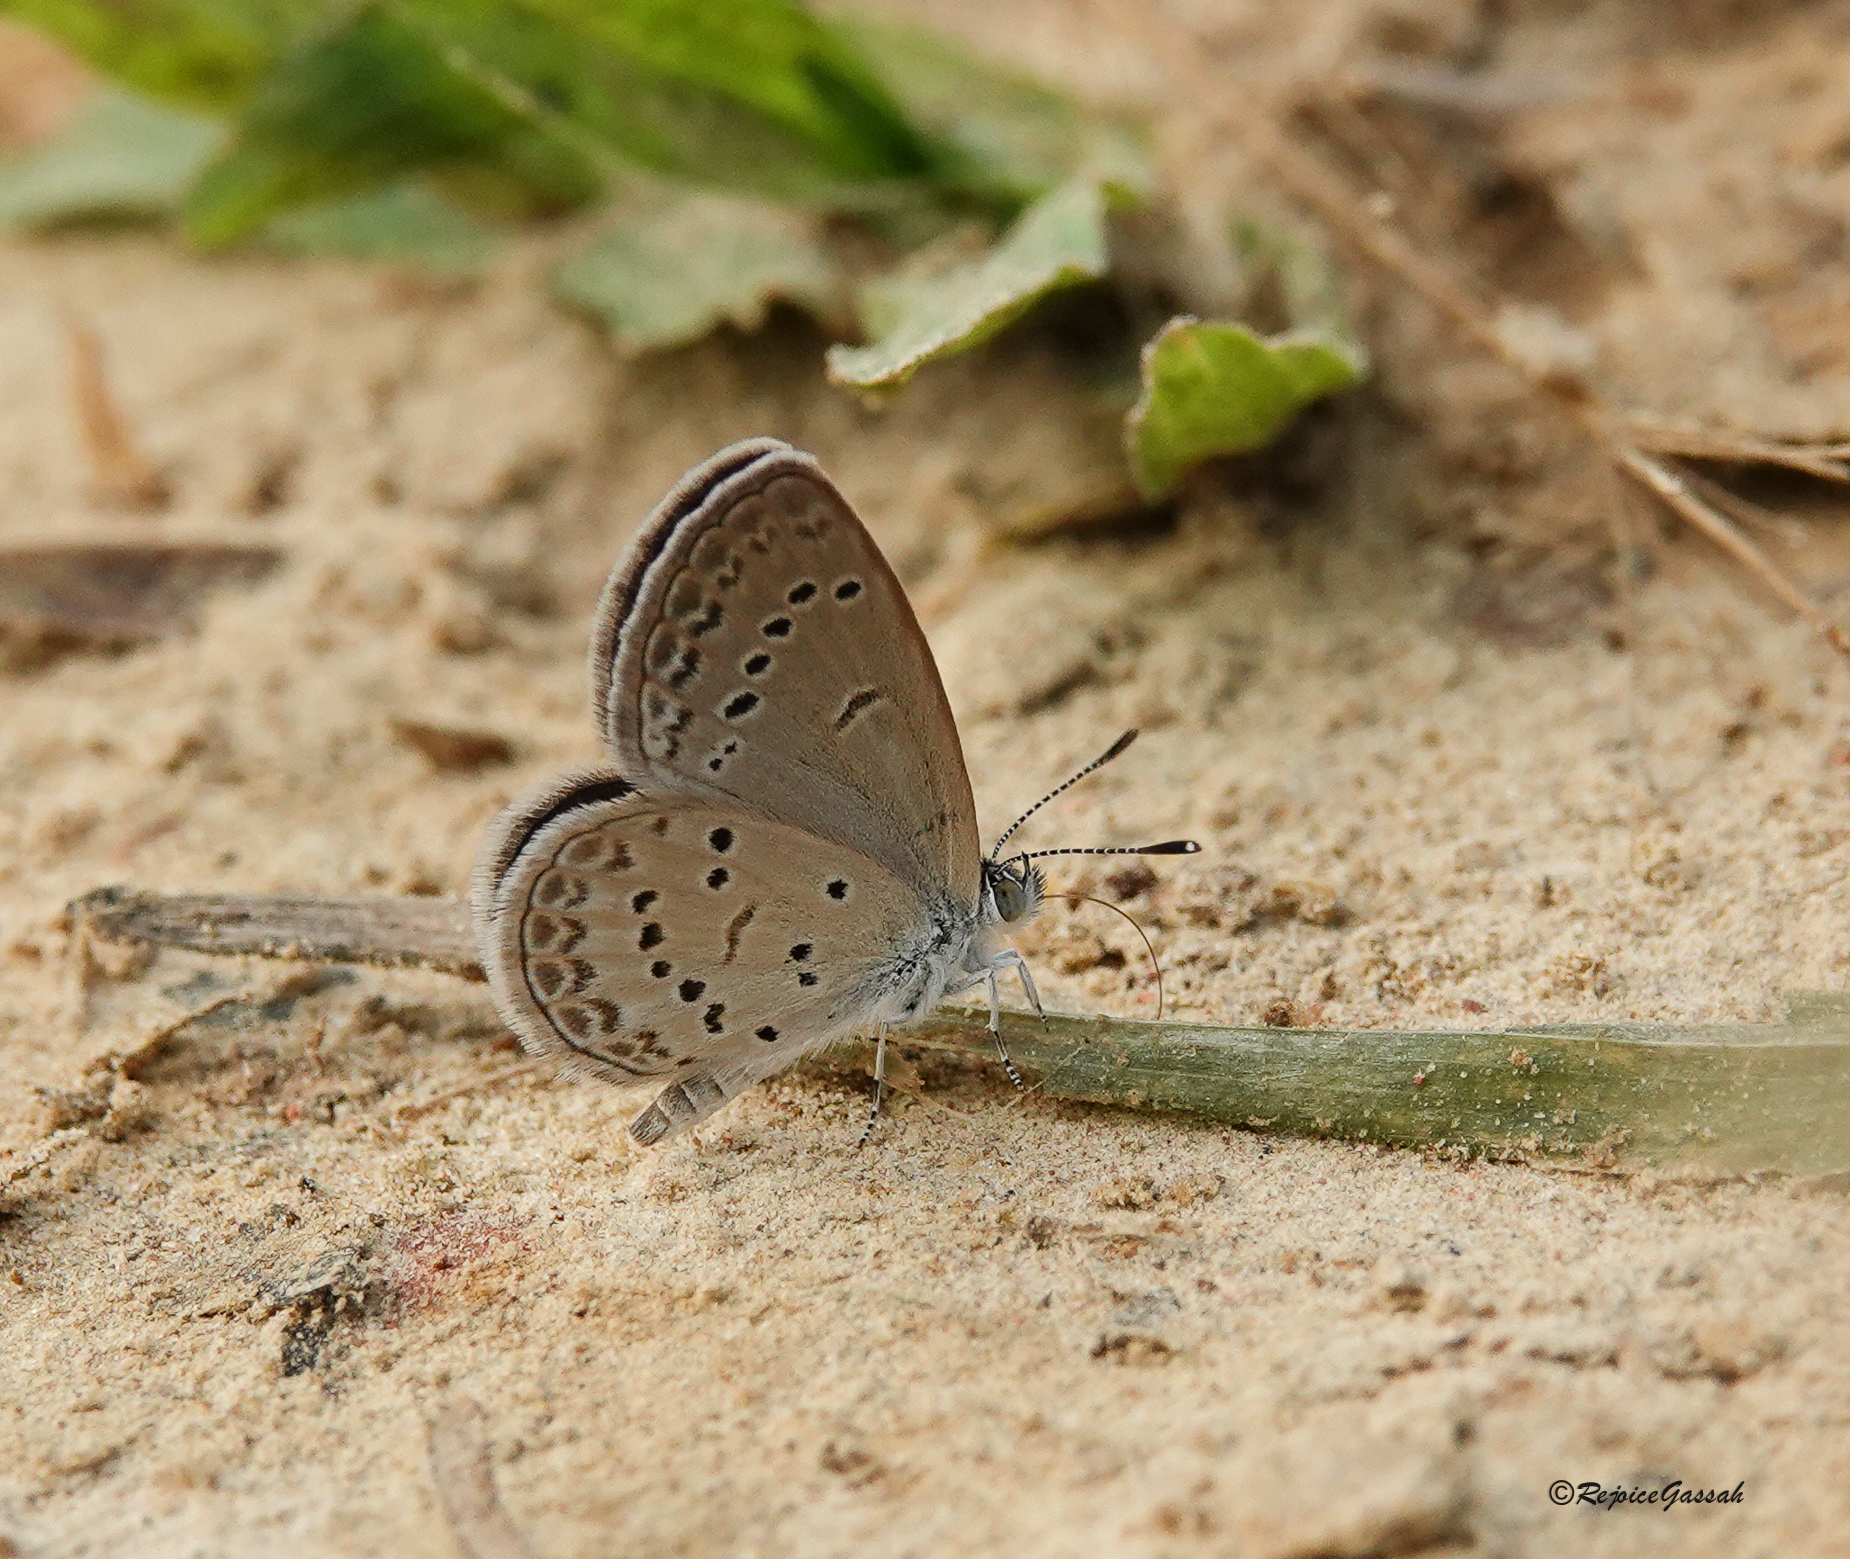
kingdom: Animalia
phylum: Arthropoda
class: Insecta
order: Lepidoptera
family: Lycaenidae
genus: Zizina
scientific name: Zizina otis
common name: Lesser grass blue
